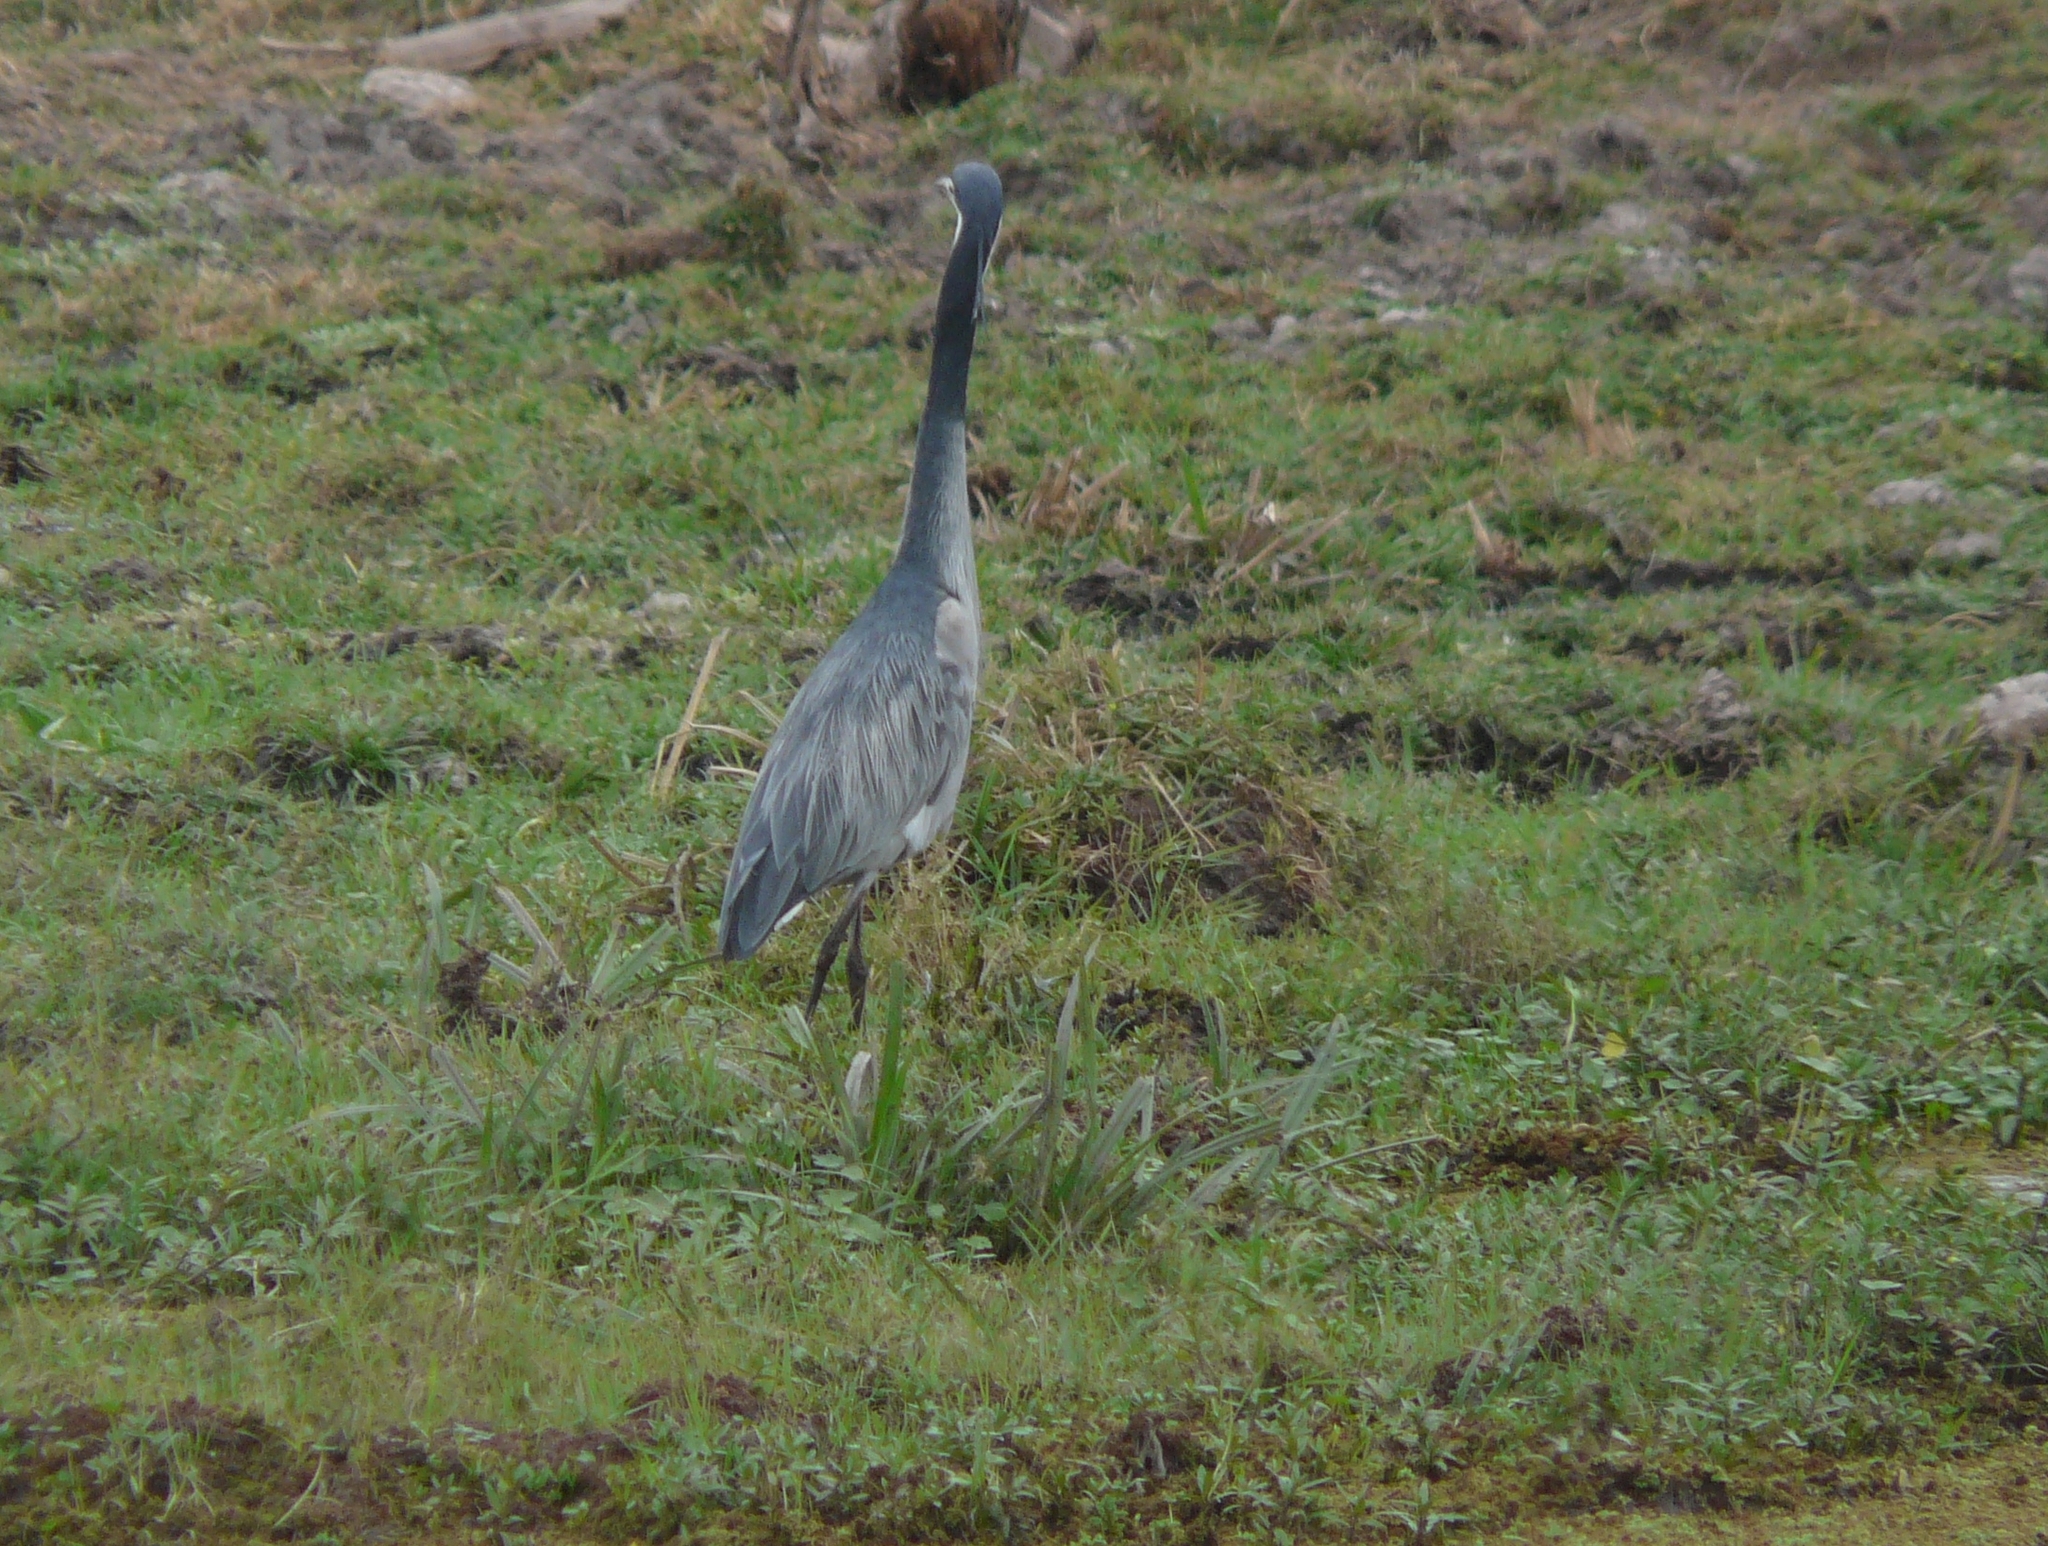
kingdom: Animalia
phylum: Chordata
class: Aves
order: Pelecaniformes
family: Ardeidae
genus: Ardea
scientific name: Ardea melanocephala
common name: Black-headed heron
